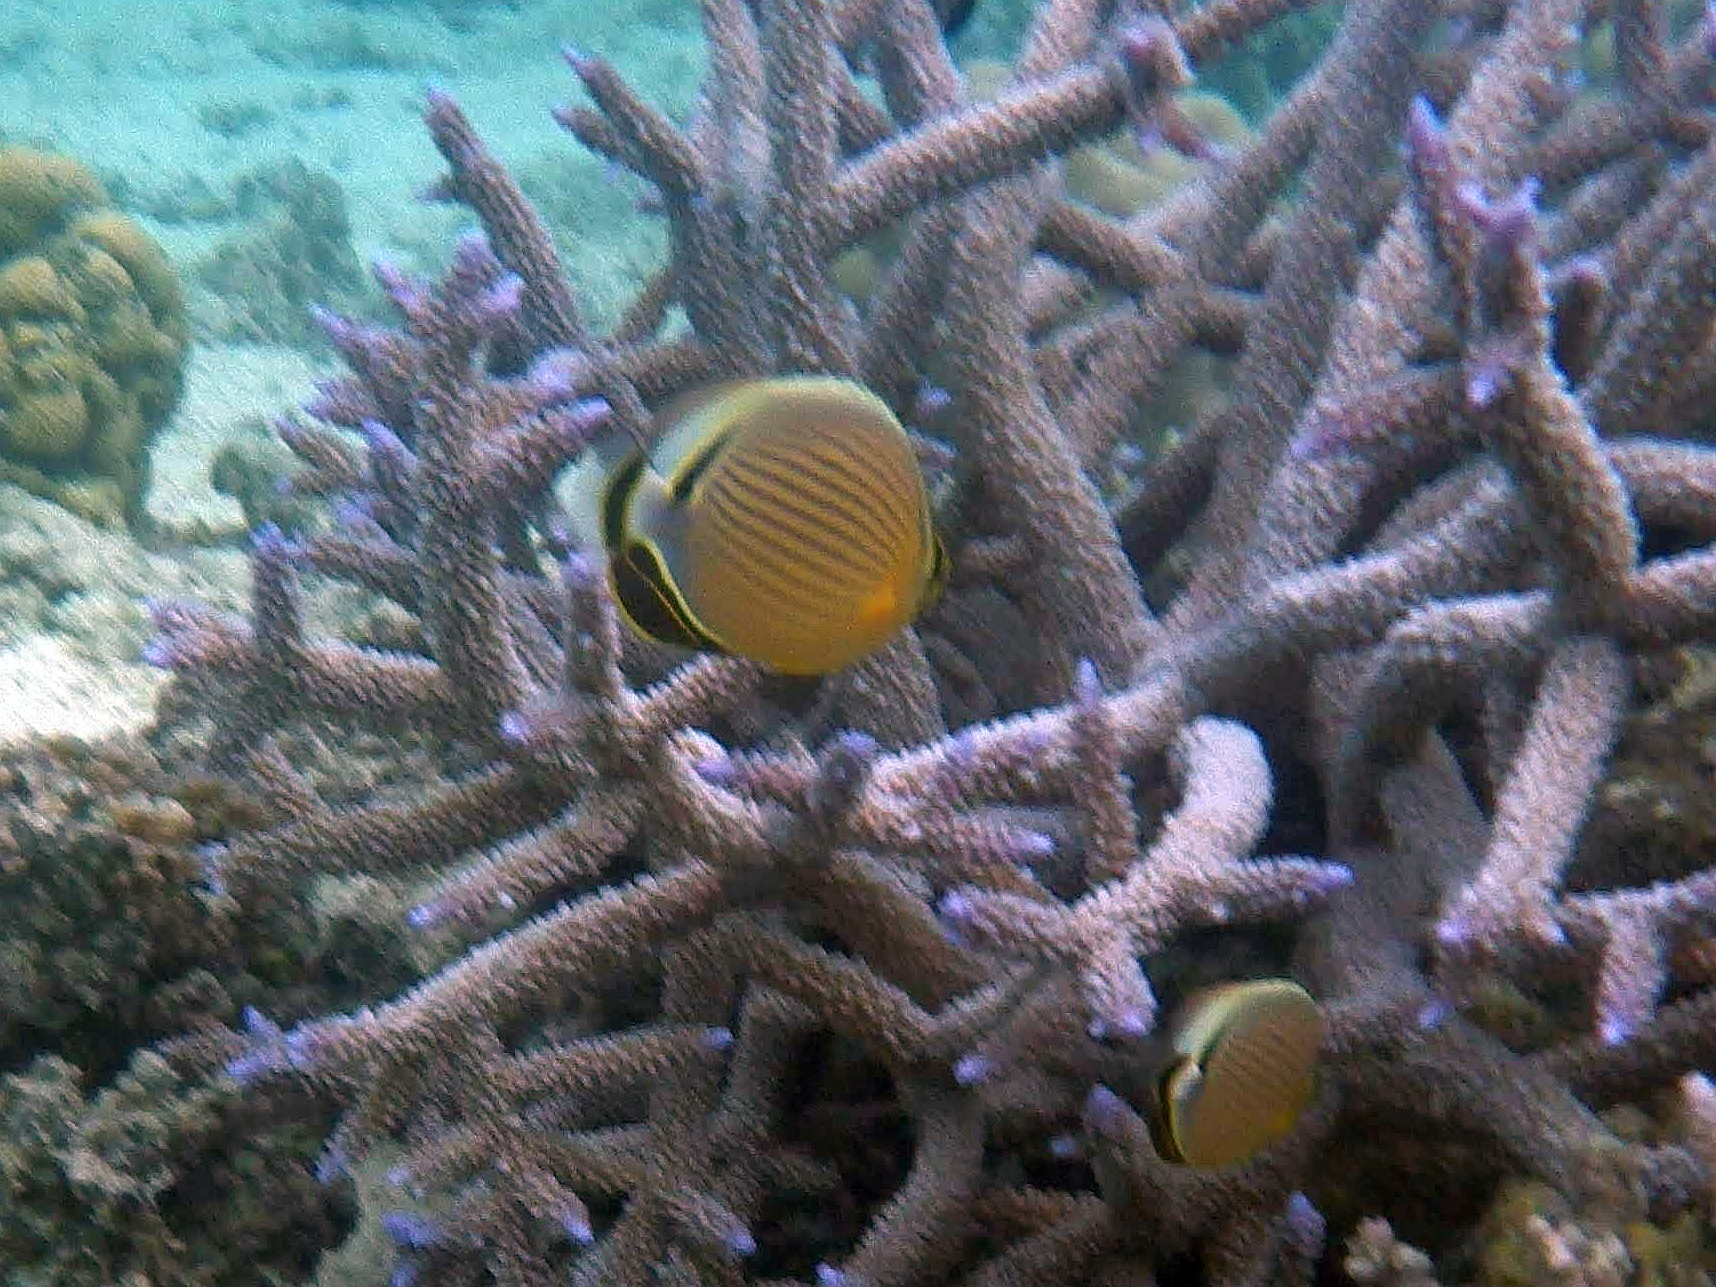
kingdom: Animalia
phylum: Chordata
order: Perciformes
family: Chaetodontidae
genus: Chaetodon
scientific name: Chaetodon lunulatus
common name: Redfin butterflyfish
